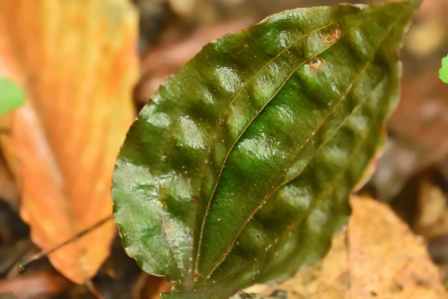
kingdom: Plantae
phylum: Tracheophyta
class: Liliopsida
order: Asparagales
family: Orchidaceae
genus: Tipularia
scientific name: Tipularia discolor
